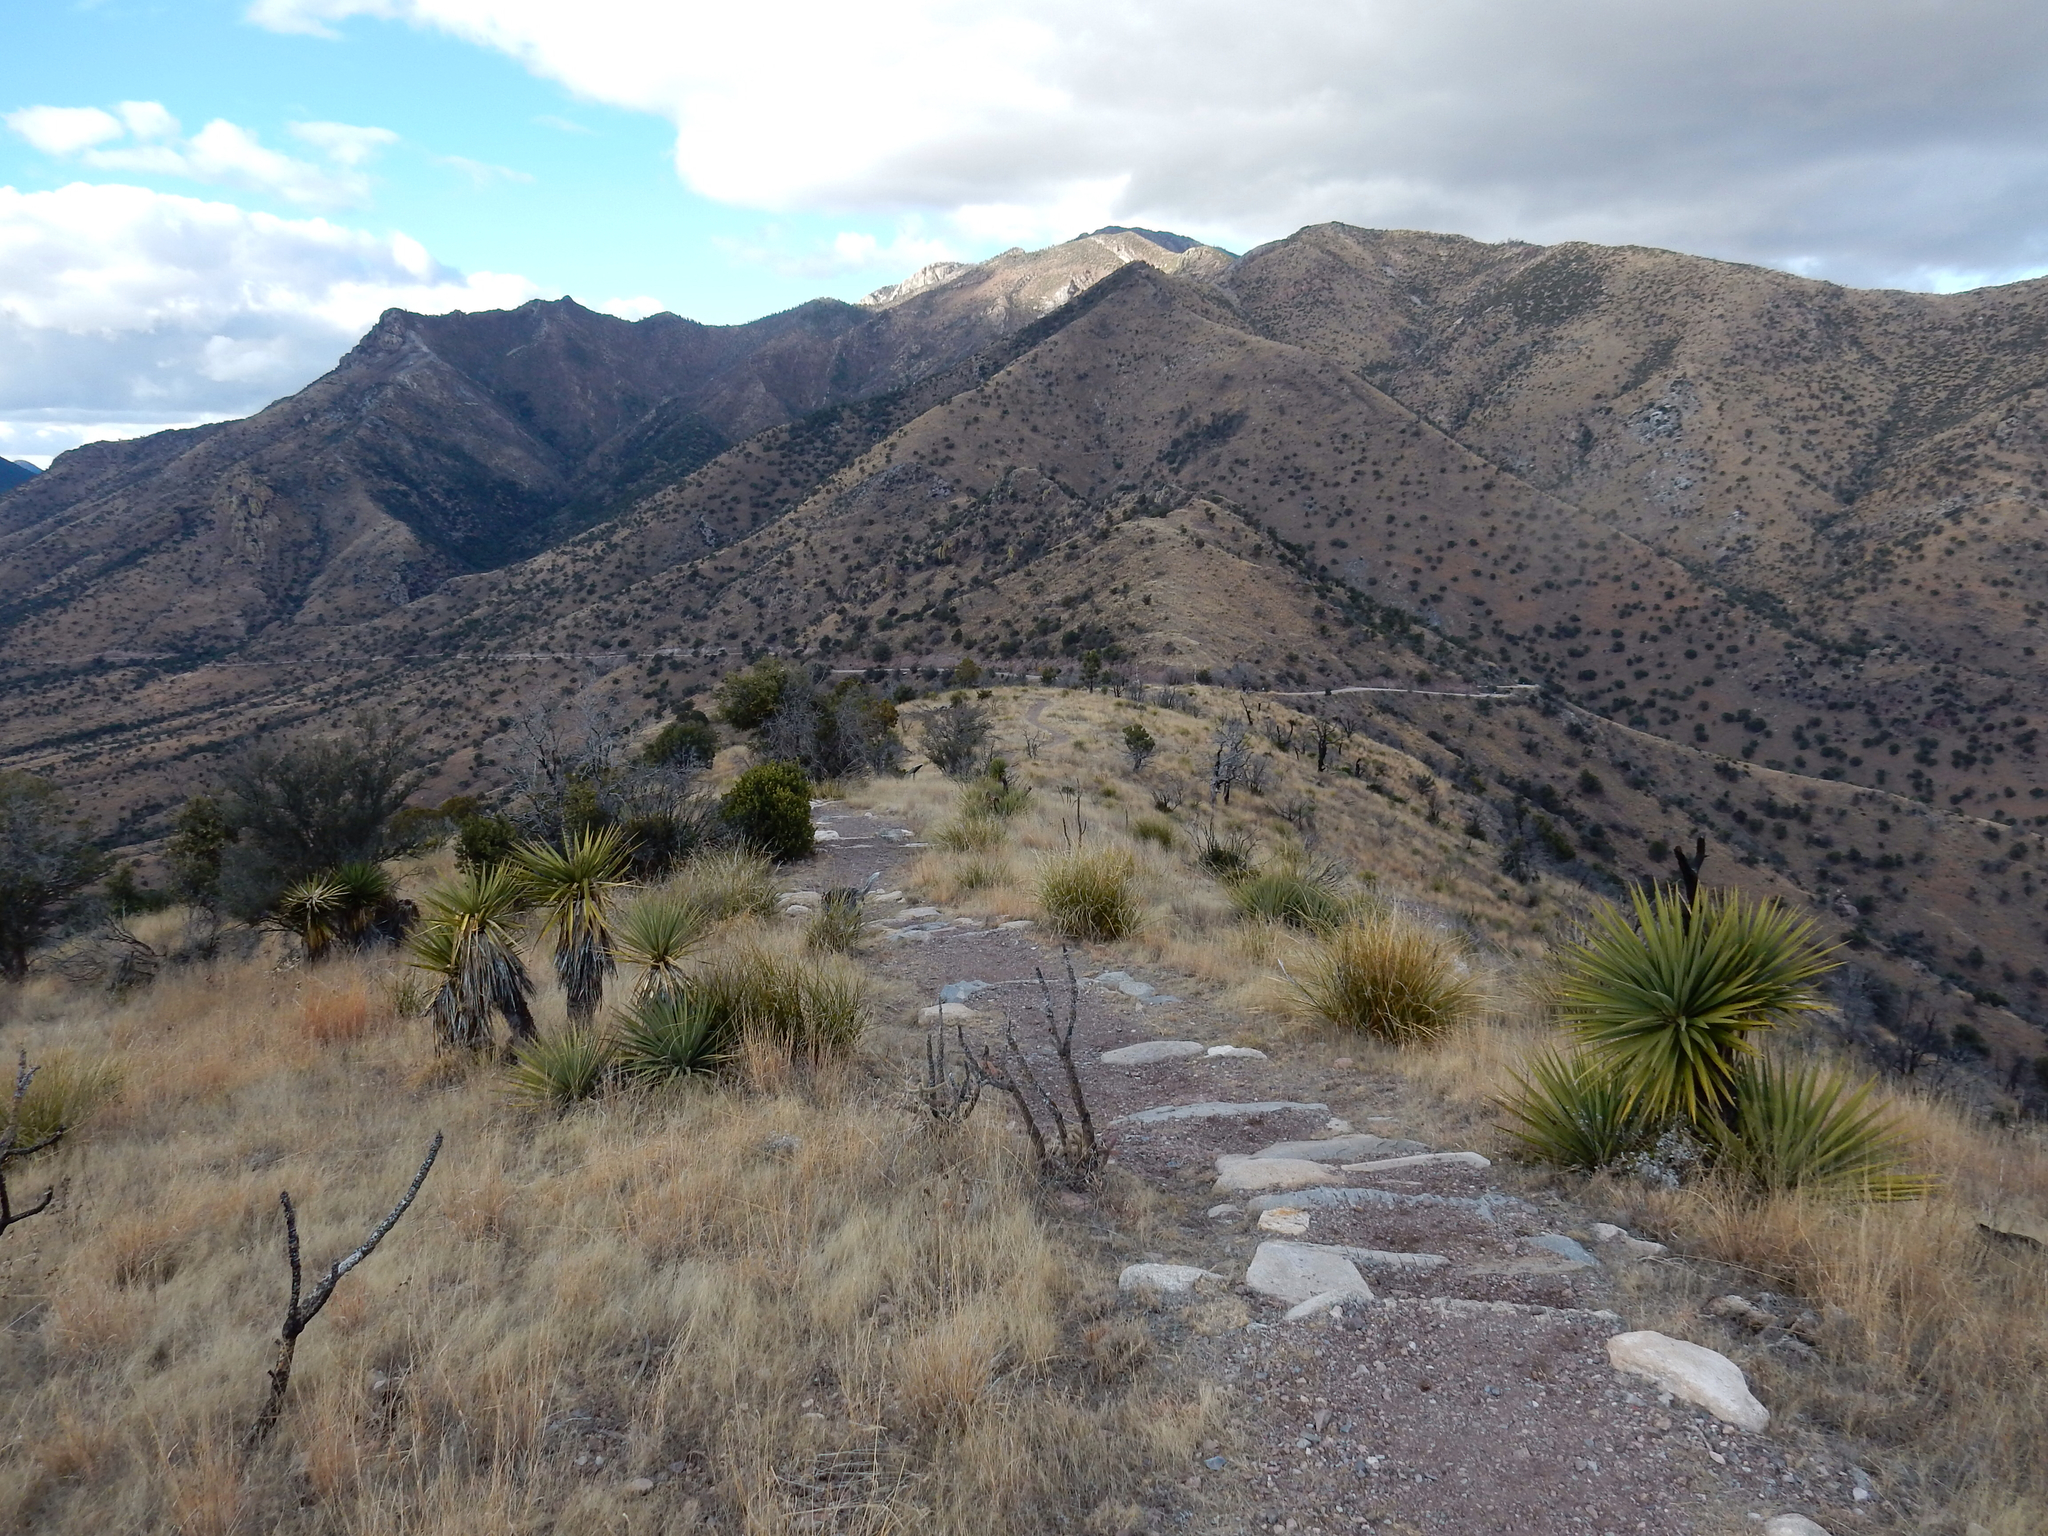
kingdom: Plantae
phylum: Tracheophyta
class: Liliopsida
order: Asparagales
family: Asparagaceae
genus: Yucca
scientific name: Yucca schottii
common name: Hoary yucca
